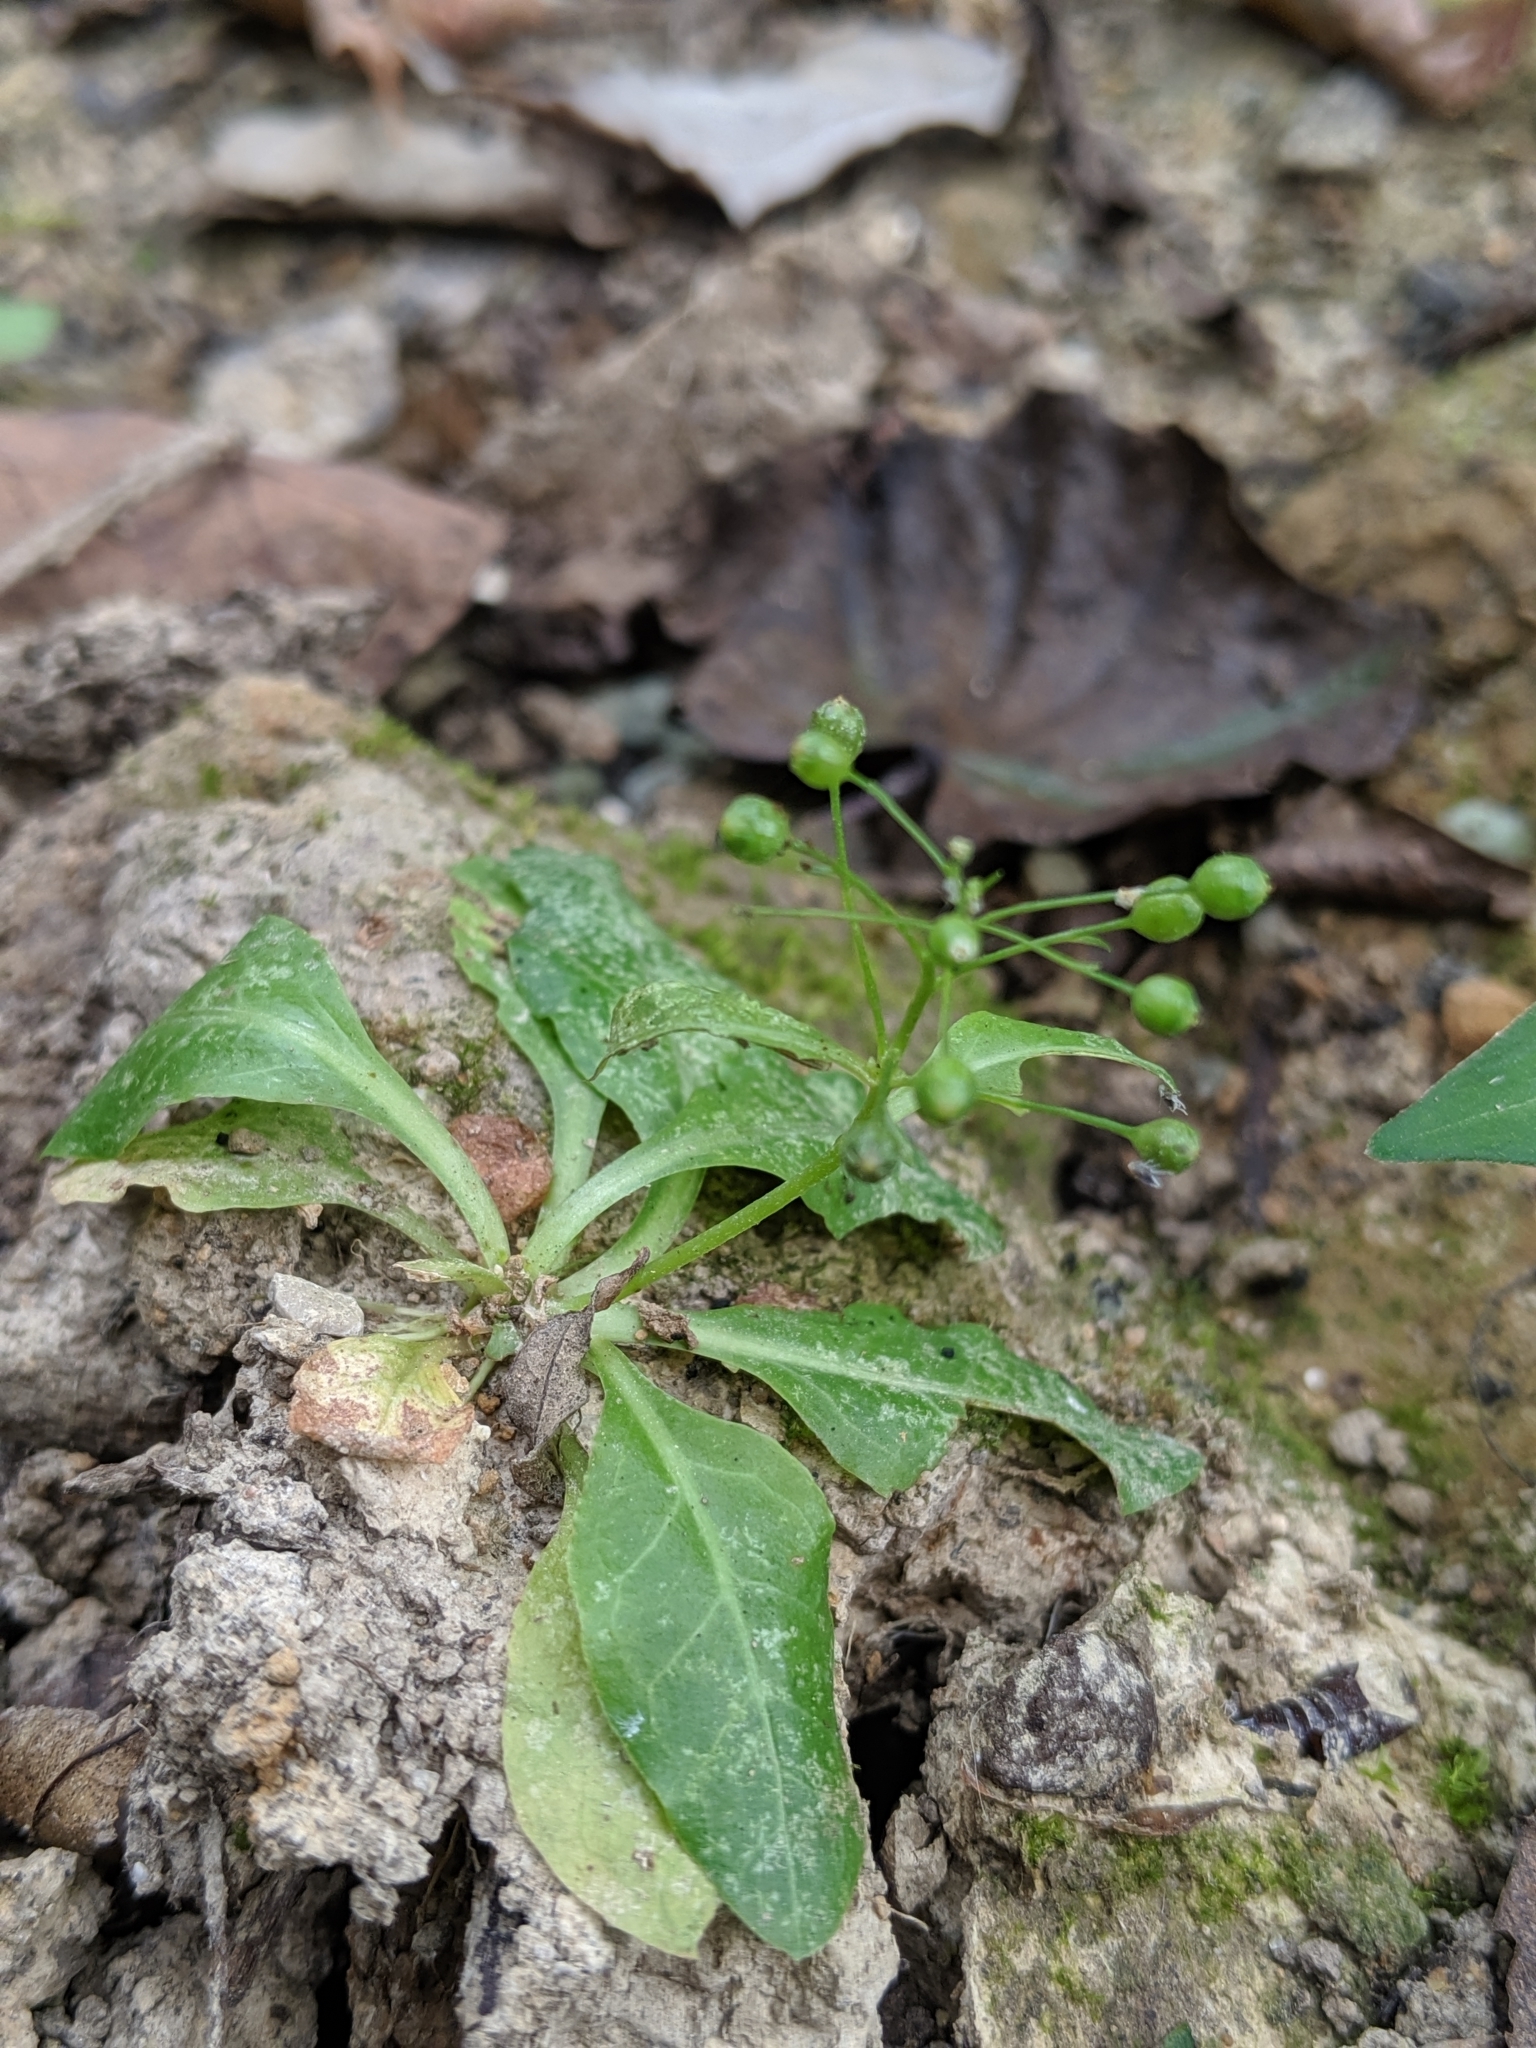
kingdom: Plantae
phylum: Tracheophyta
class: Magnoliopsida
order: Ericales
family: Primulaceae
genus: Samolus
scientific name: Samolus parviflorus
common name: False water pimpernel
